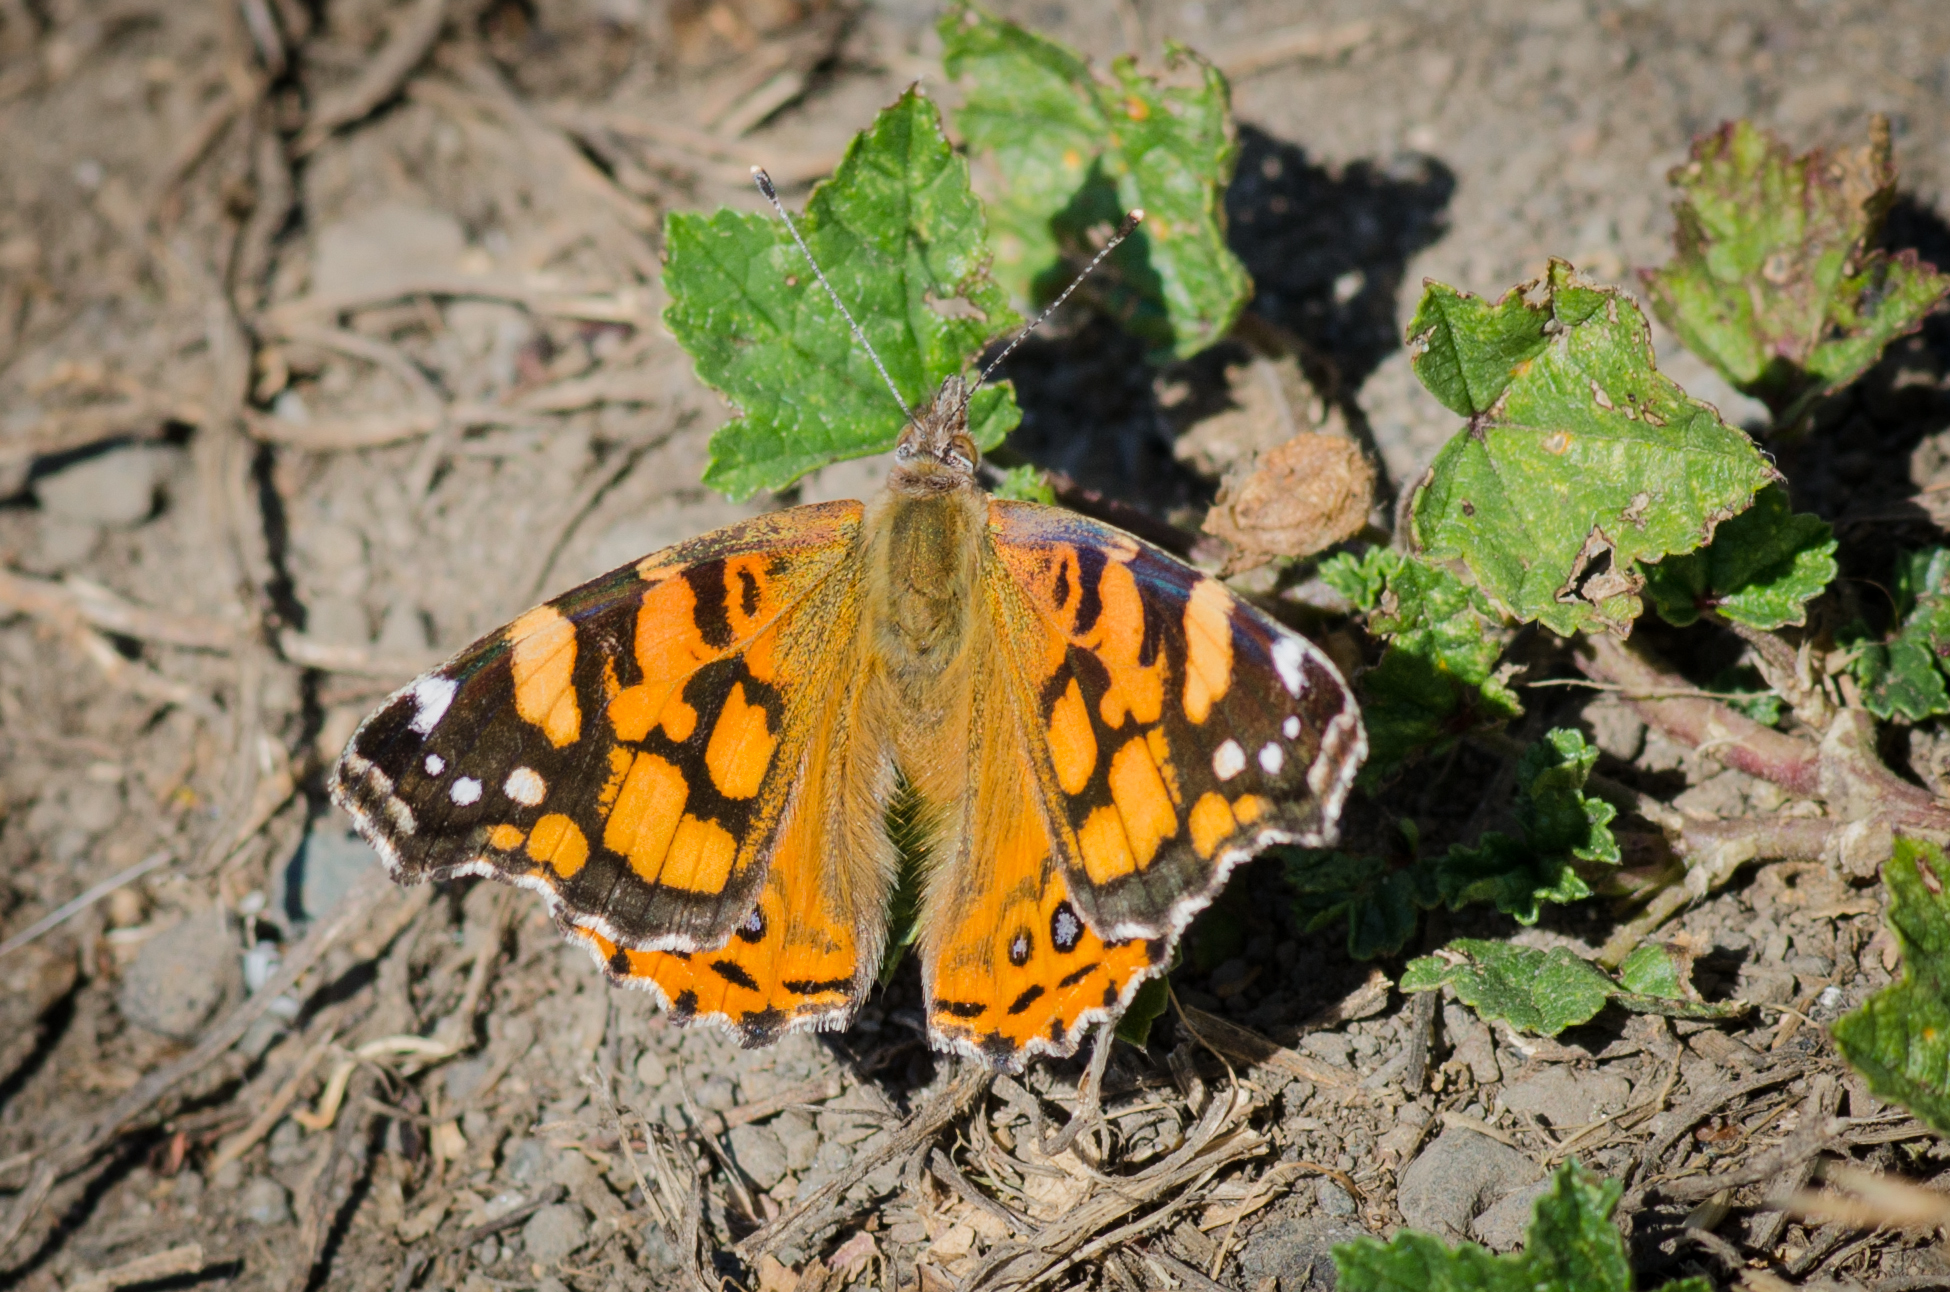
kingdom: Animalia
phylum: Arthropoda
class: Insecta
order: Lepidoptera
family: Nymphalidae
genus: Vanessa
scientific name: Vanessa annabella
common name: West coast lady
